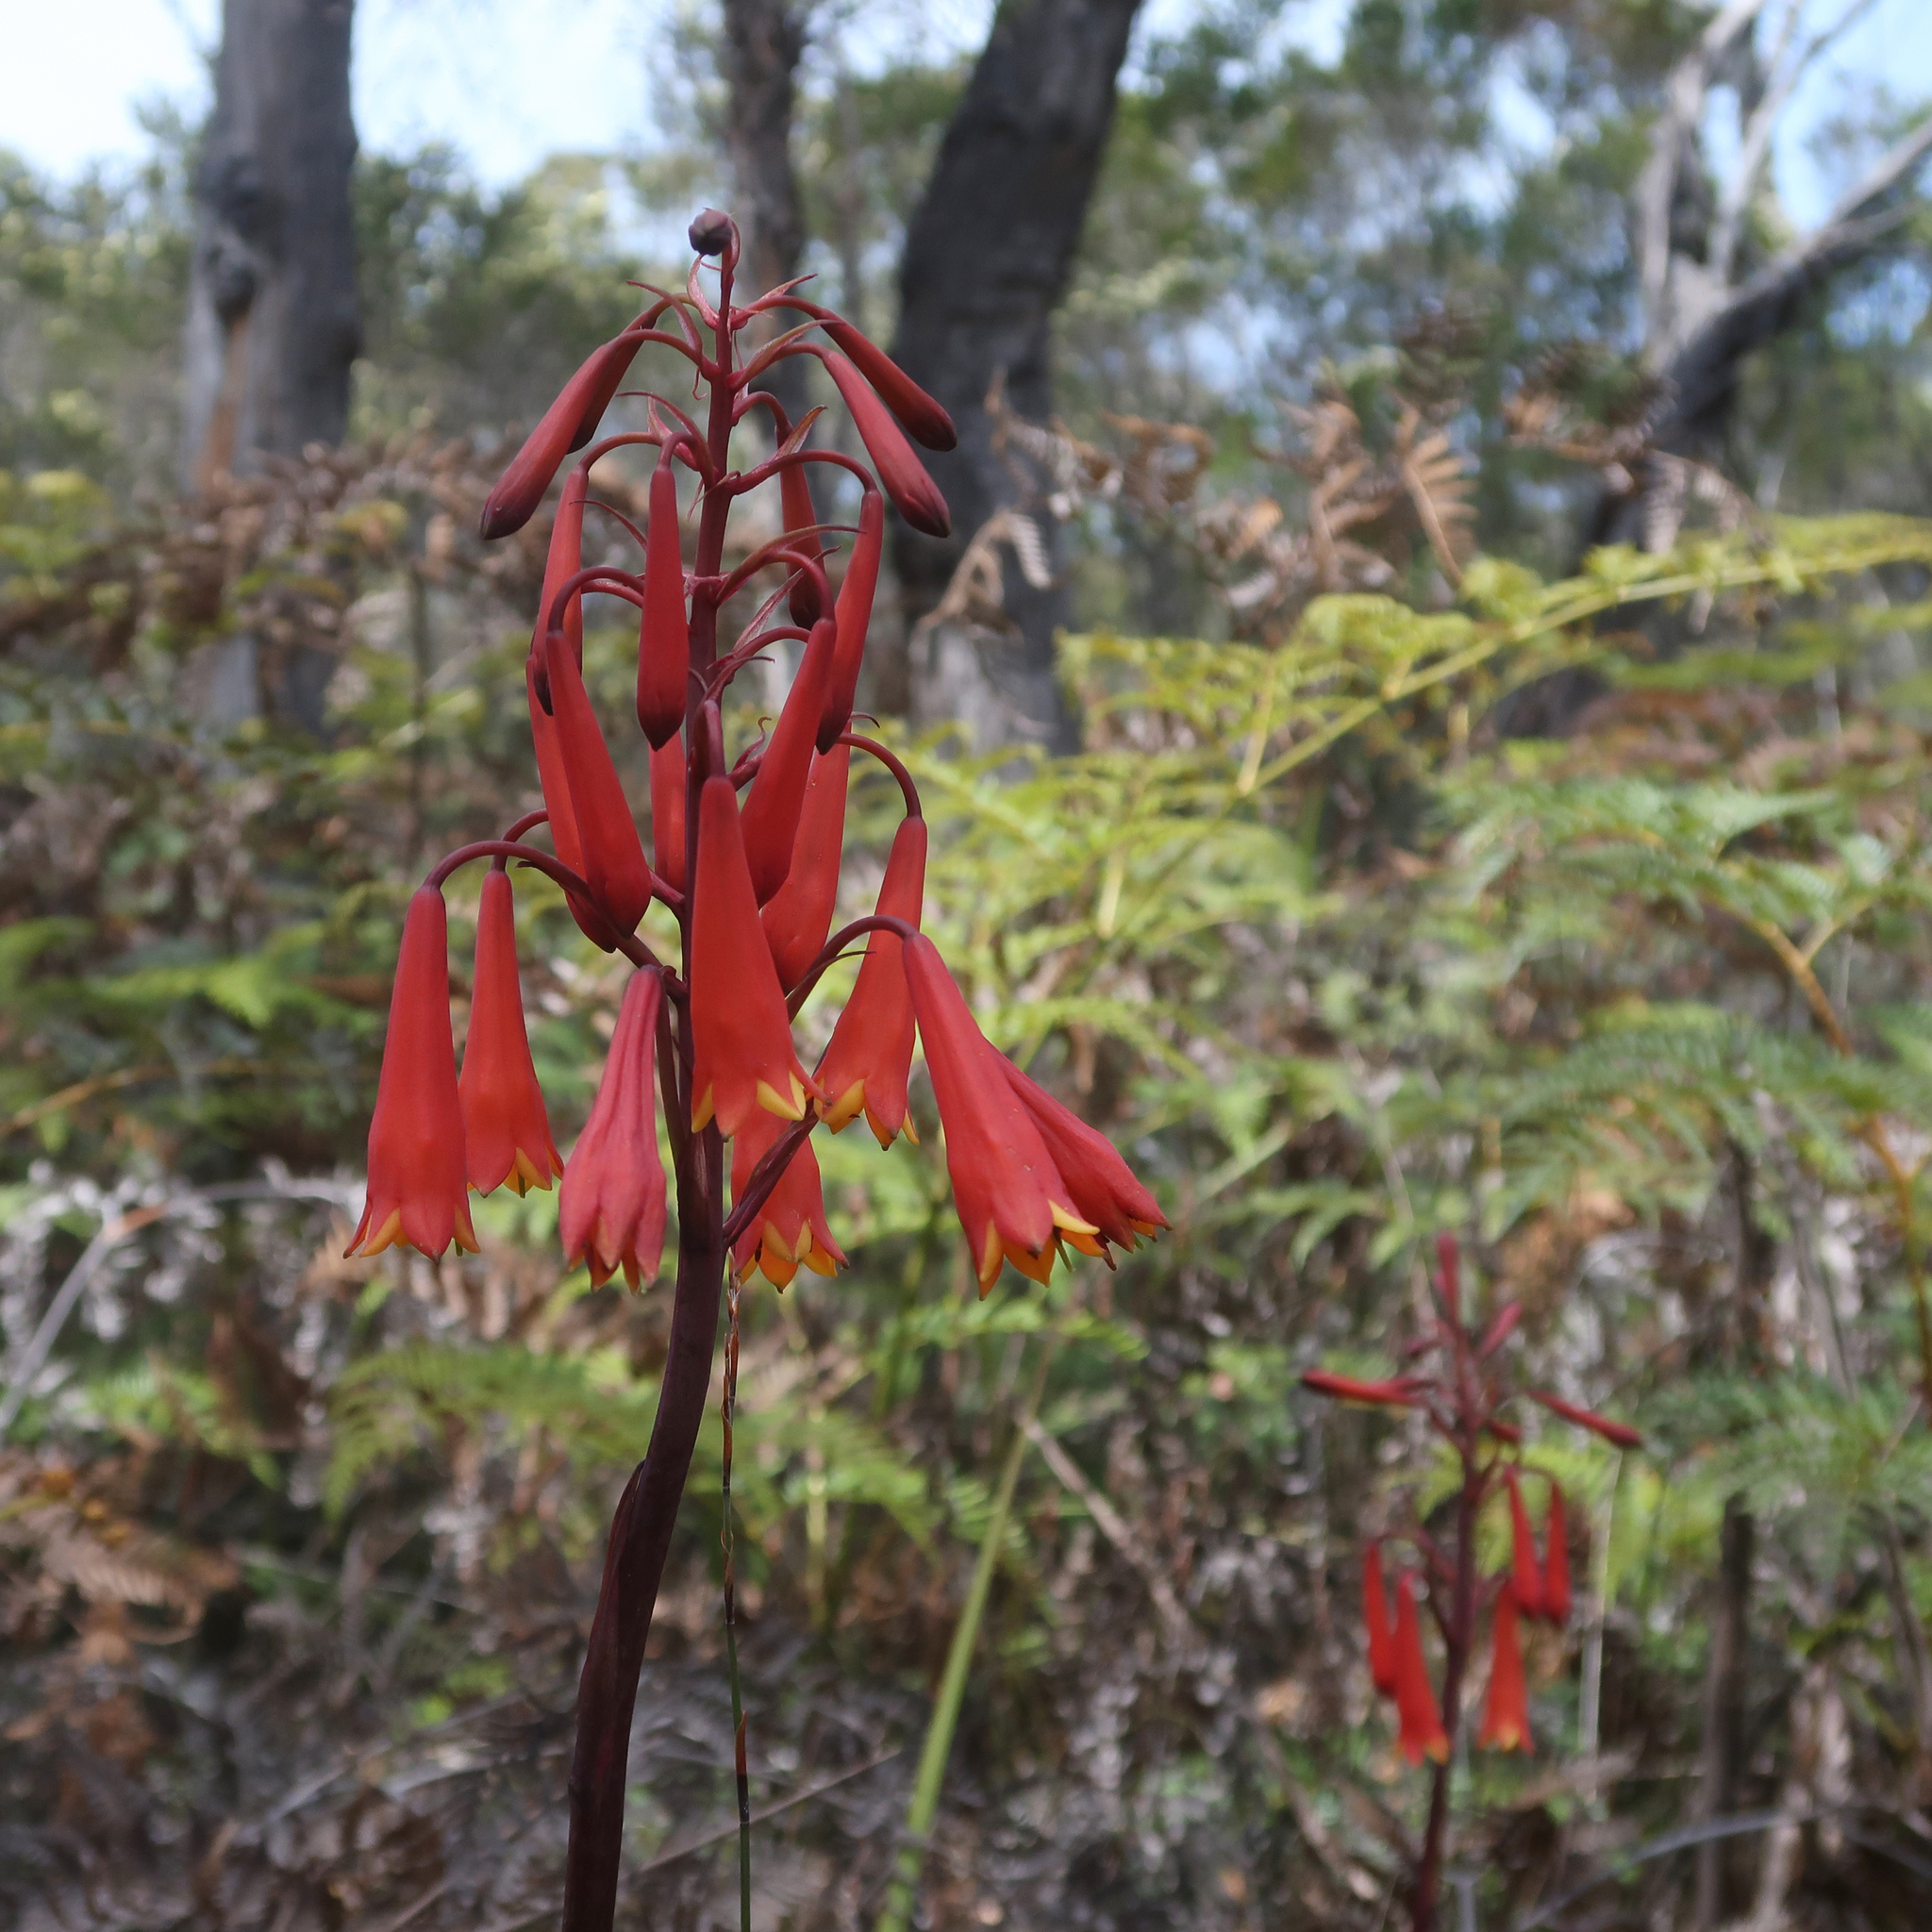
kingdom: Plantae
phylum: Tracheophyta
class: Liliopsida
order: Asparagales
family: Blandfordiaceae
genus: Blandfordia
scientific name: Blandfordia punicea
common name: Tasmanian christmas-bell
